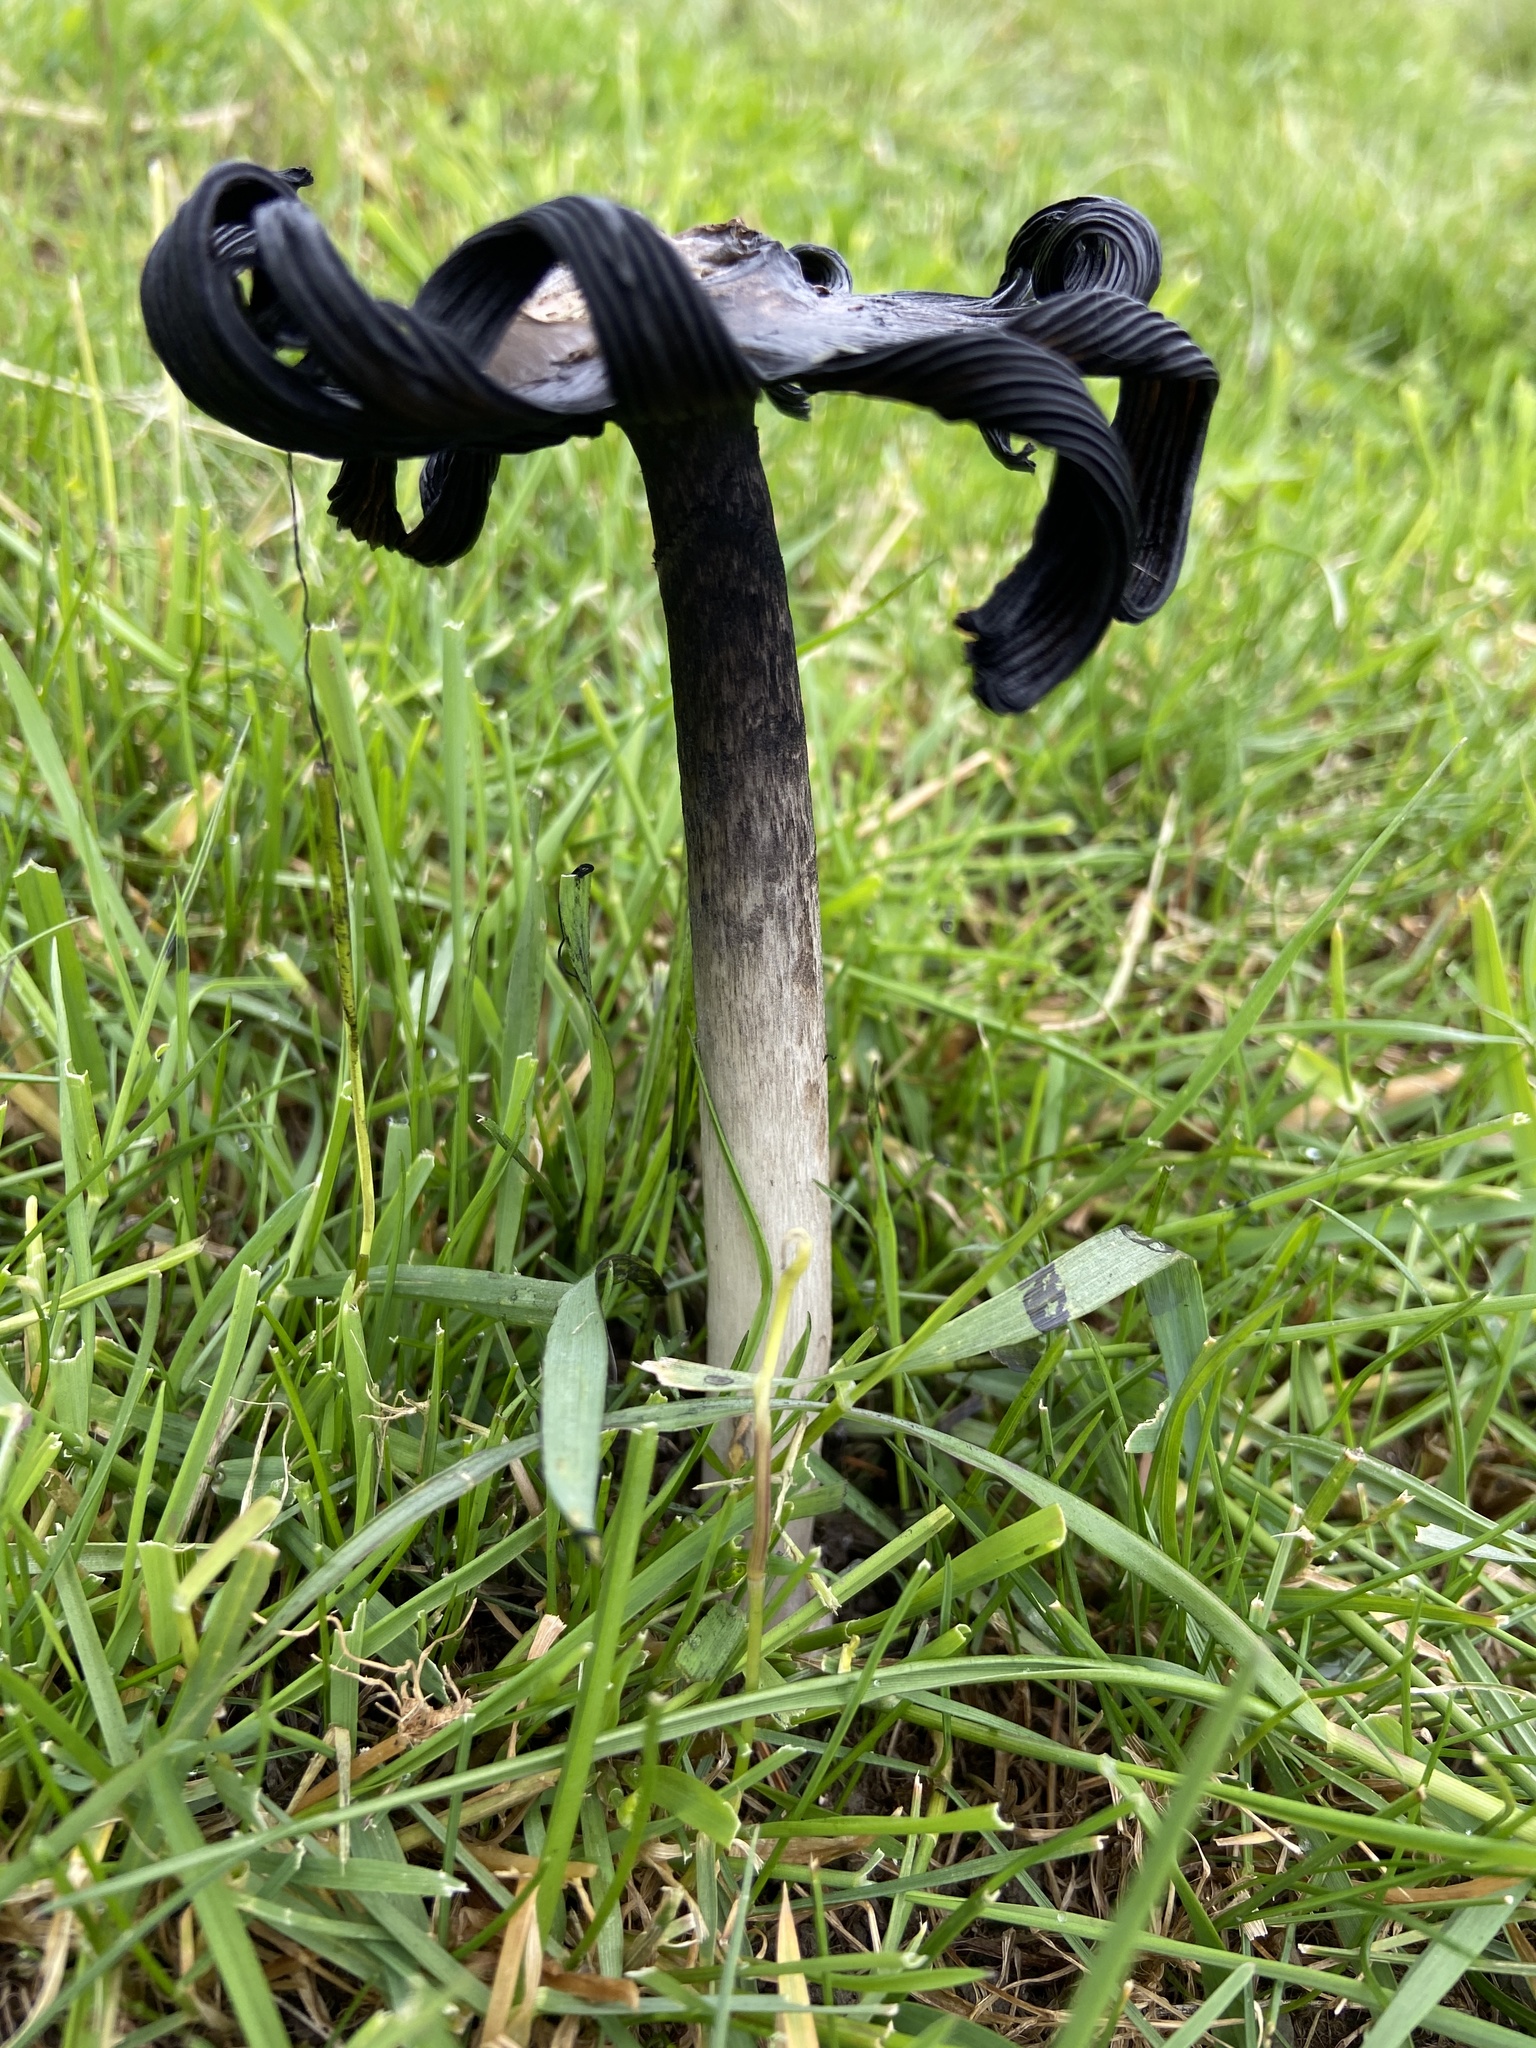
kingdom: Fungi
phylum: Basidiomycota
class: Agaricomycetes
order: Agaricales
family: Agaricaceae
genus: Coprinus
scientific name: Coprinus comatus
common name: Lawyer's wig
